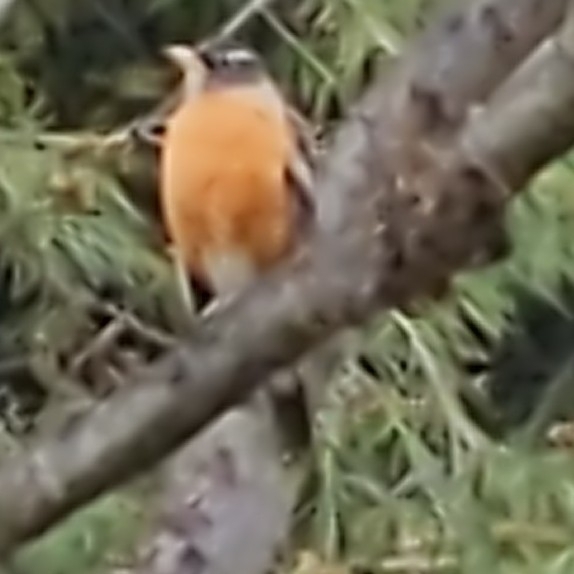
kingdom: Animalia
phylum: Chordata
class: Aves
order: Passeriformes
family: Turdidae
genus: Turdus
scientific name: Turdus migratorius
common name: American robin
